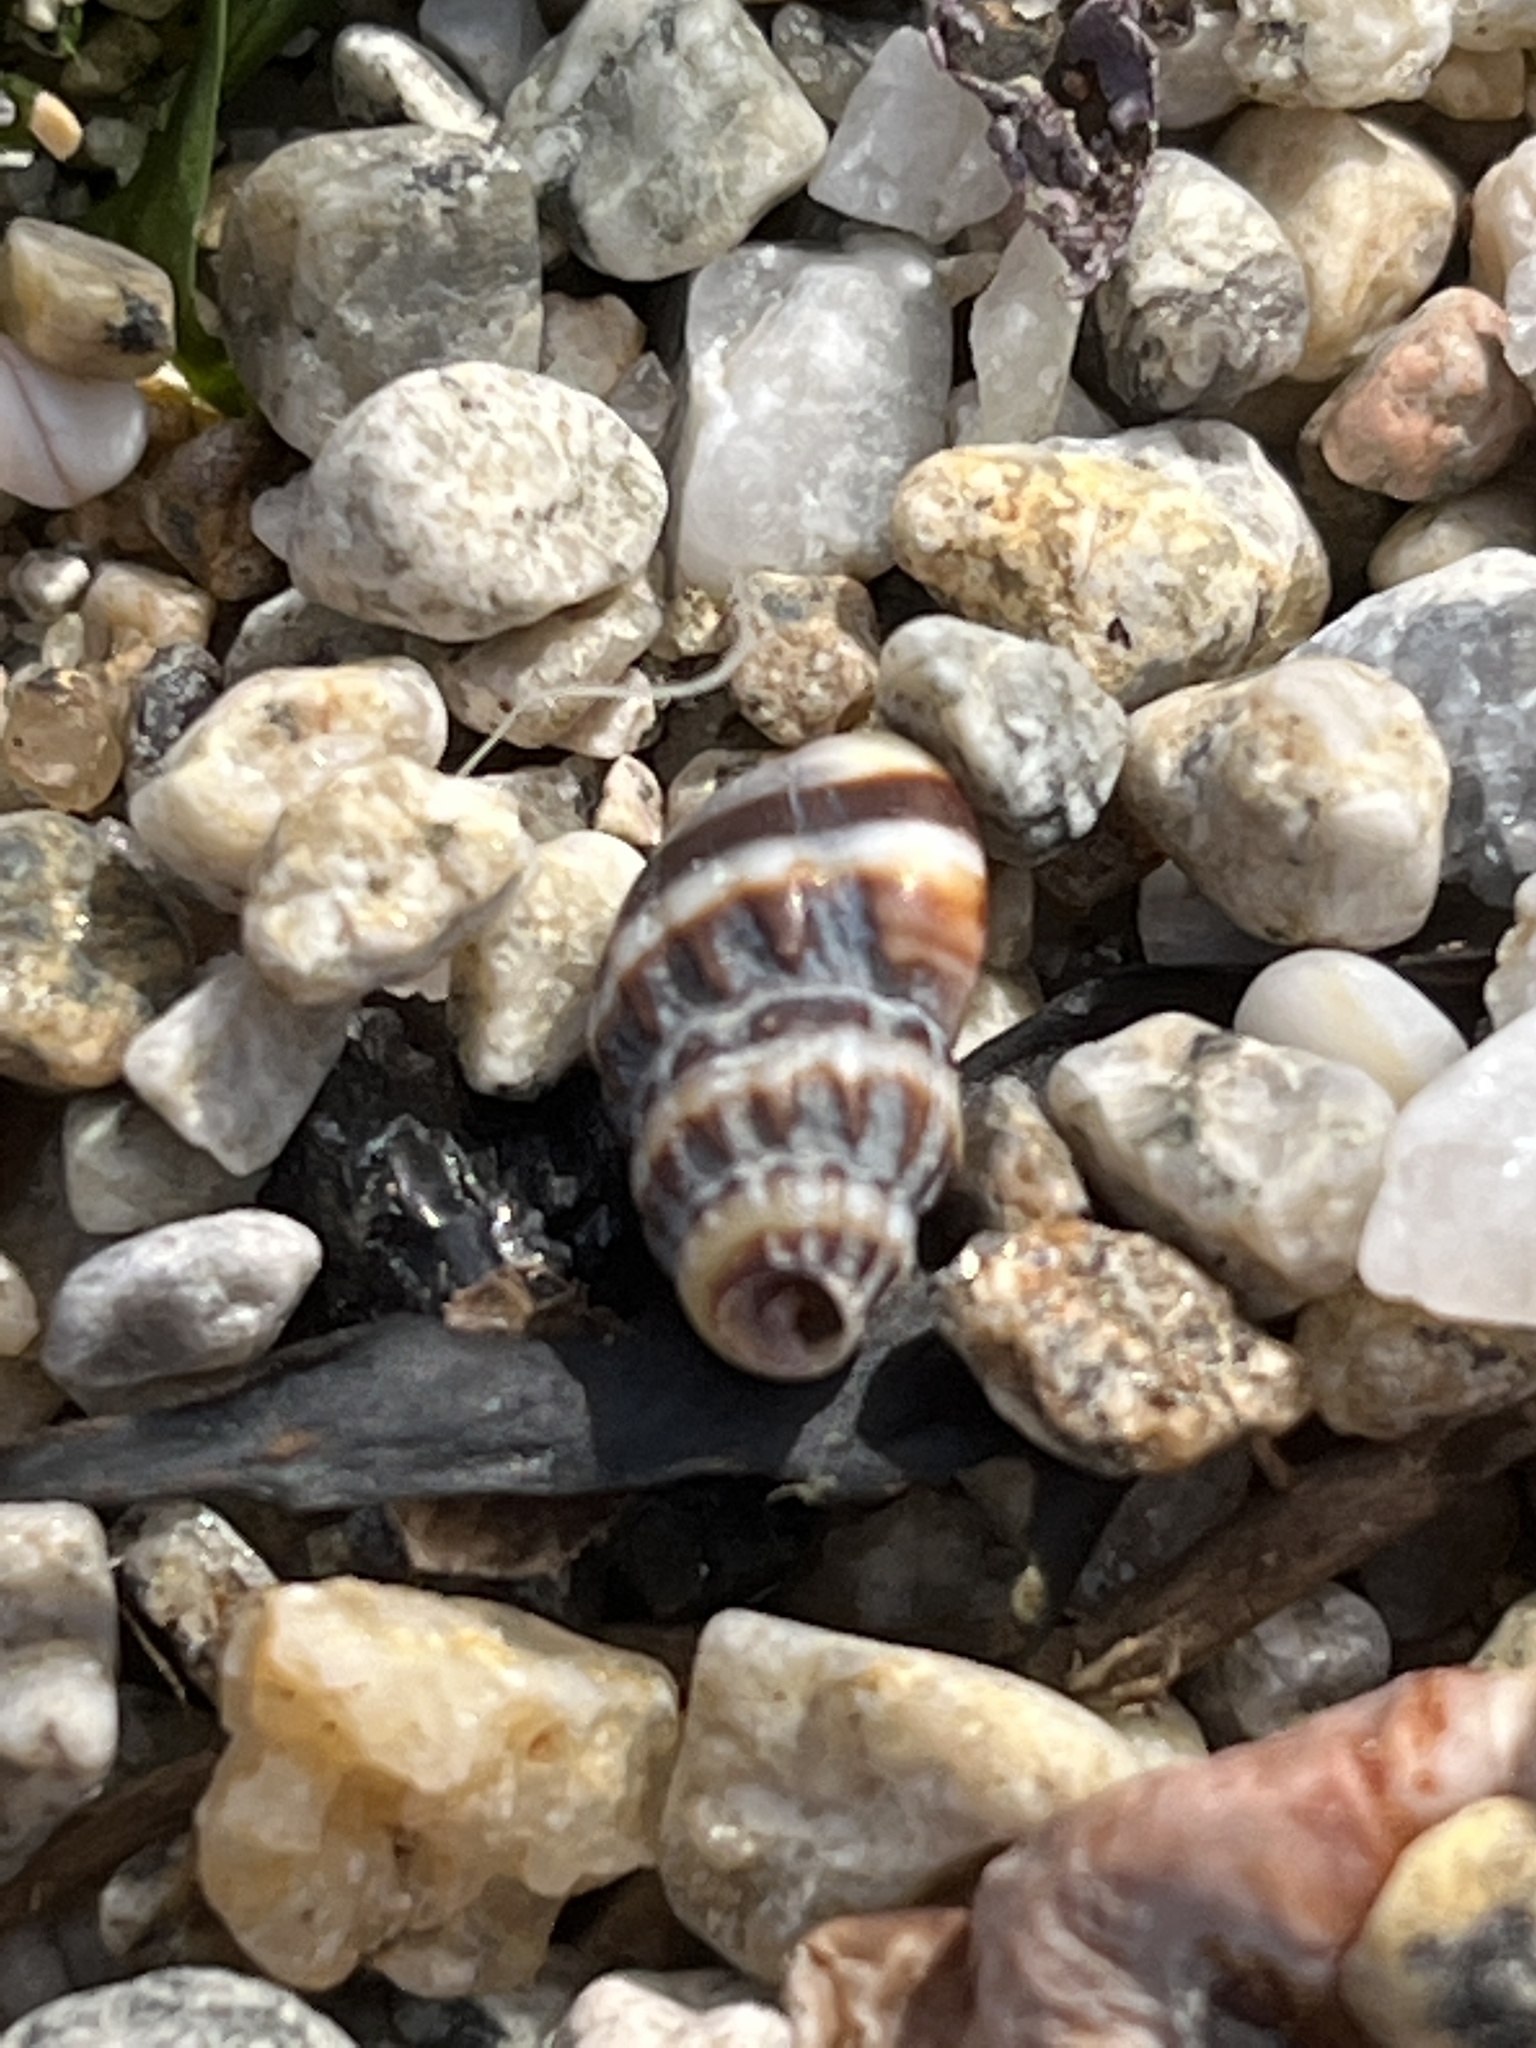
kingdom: Animalia
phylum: Mollusca
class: Gastropoda
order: Neogastropoda
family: Nassariidae
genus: Nassarius
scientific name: Nassarius fraterculus
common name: Japanese nassa
